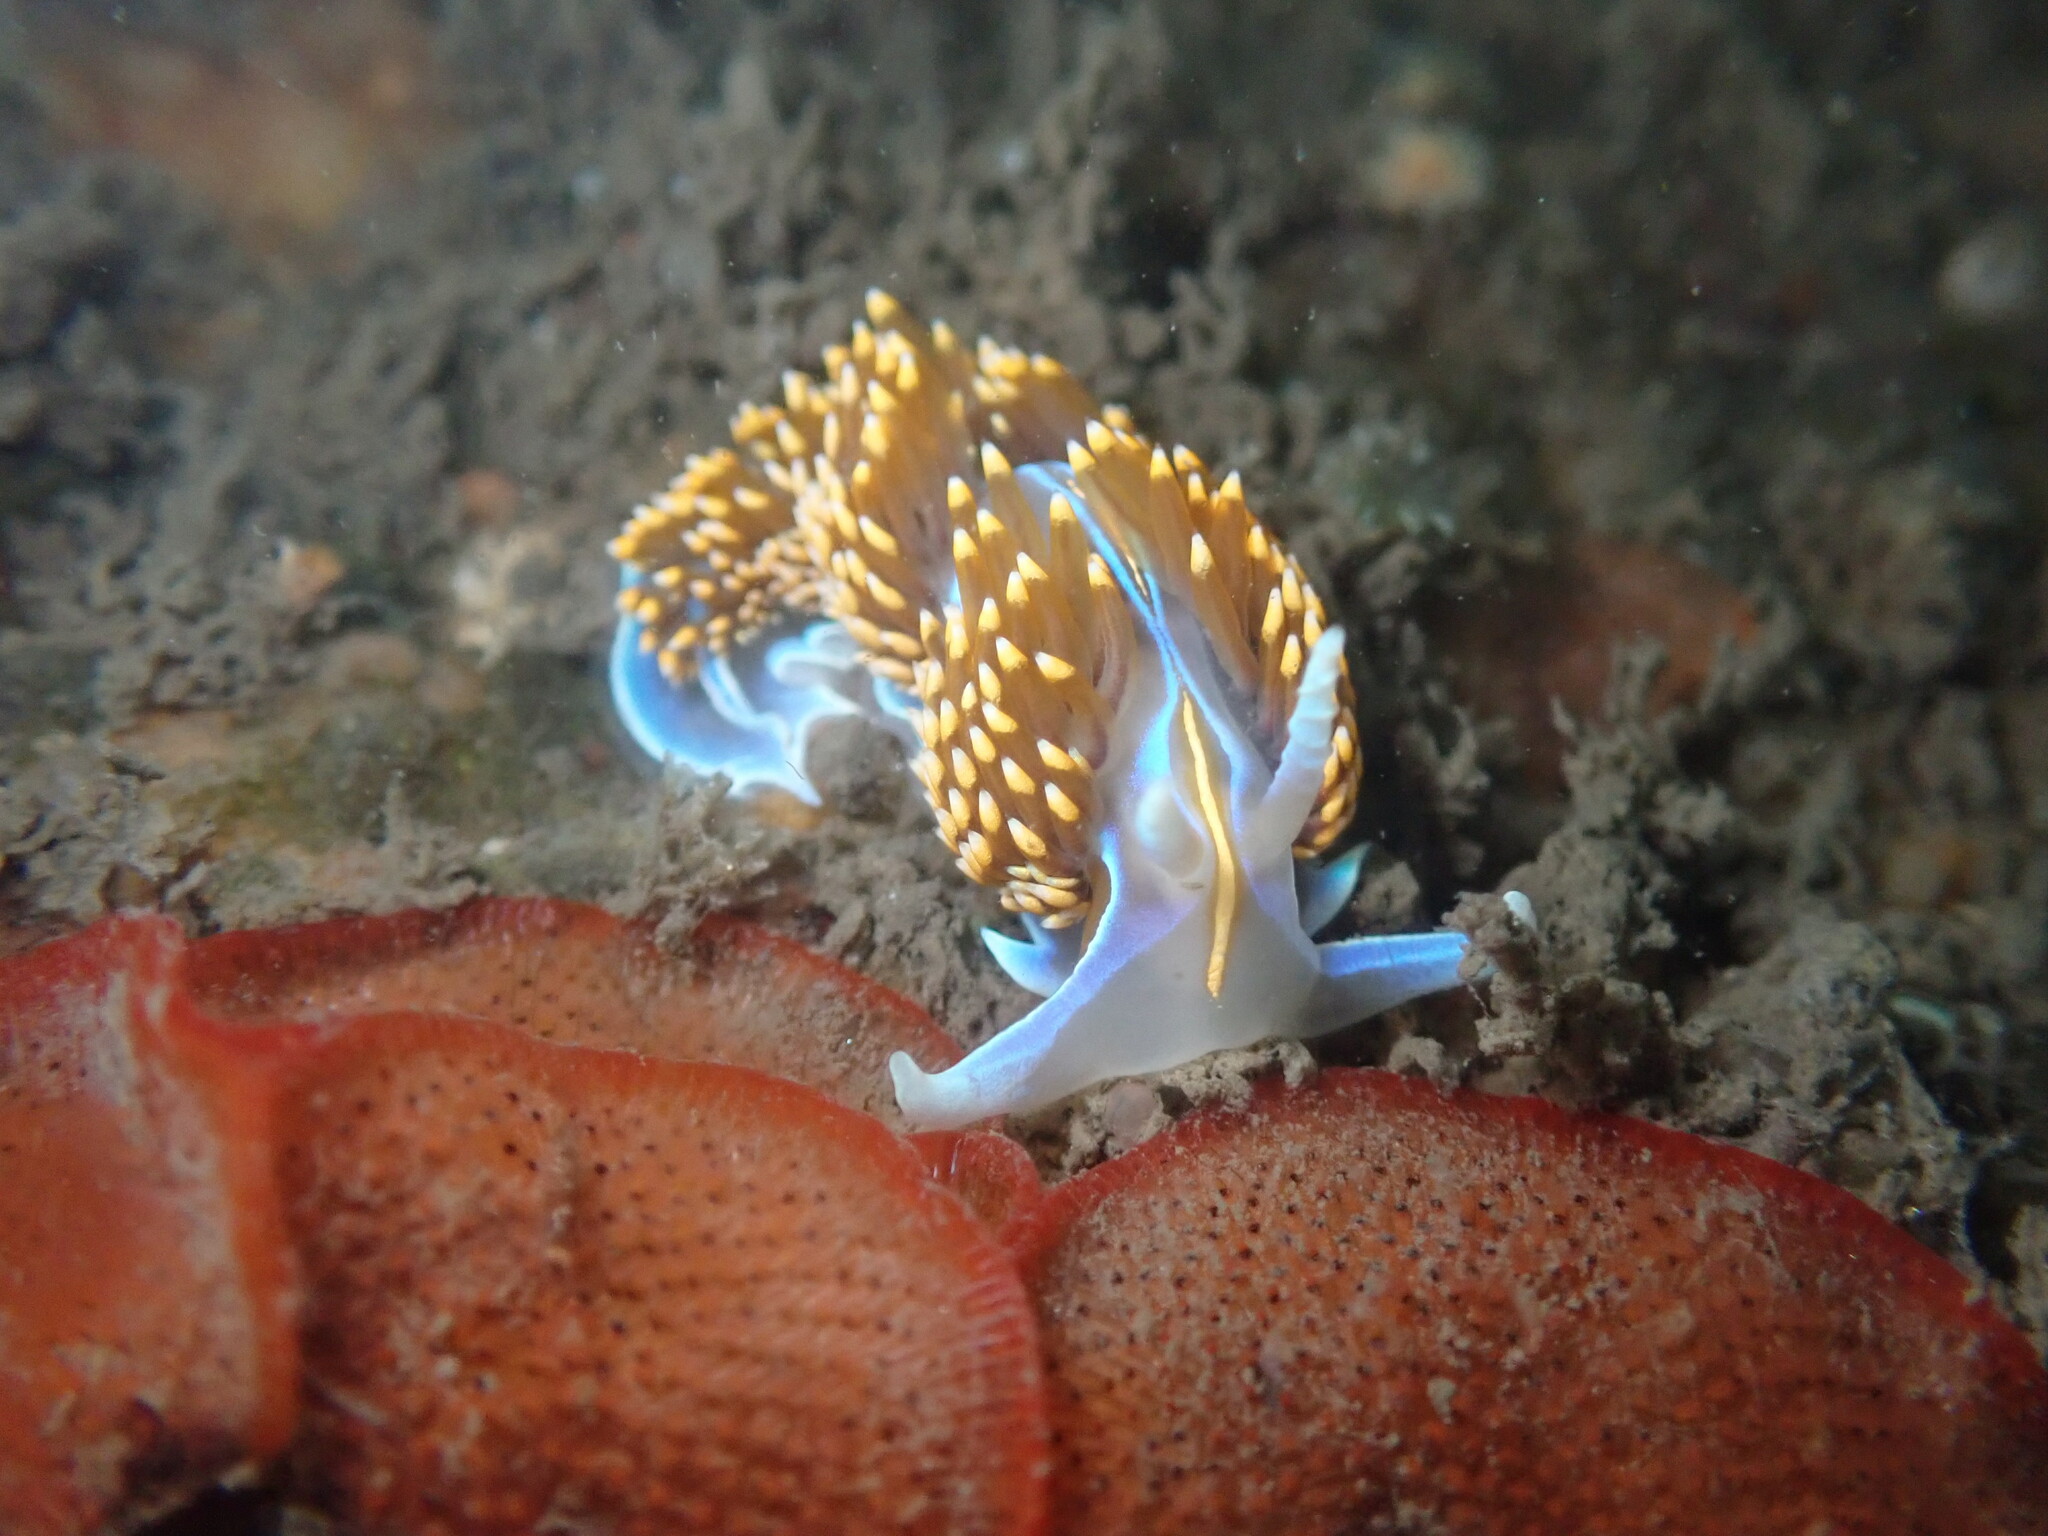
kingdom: Animalia
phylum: Mollusca
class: Gastropoda
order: Nudibranchia
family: Myrrhinidae
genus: Hermissenda
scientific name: Hermissenda opalescens
